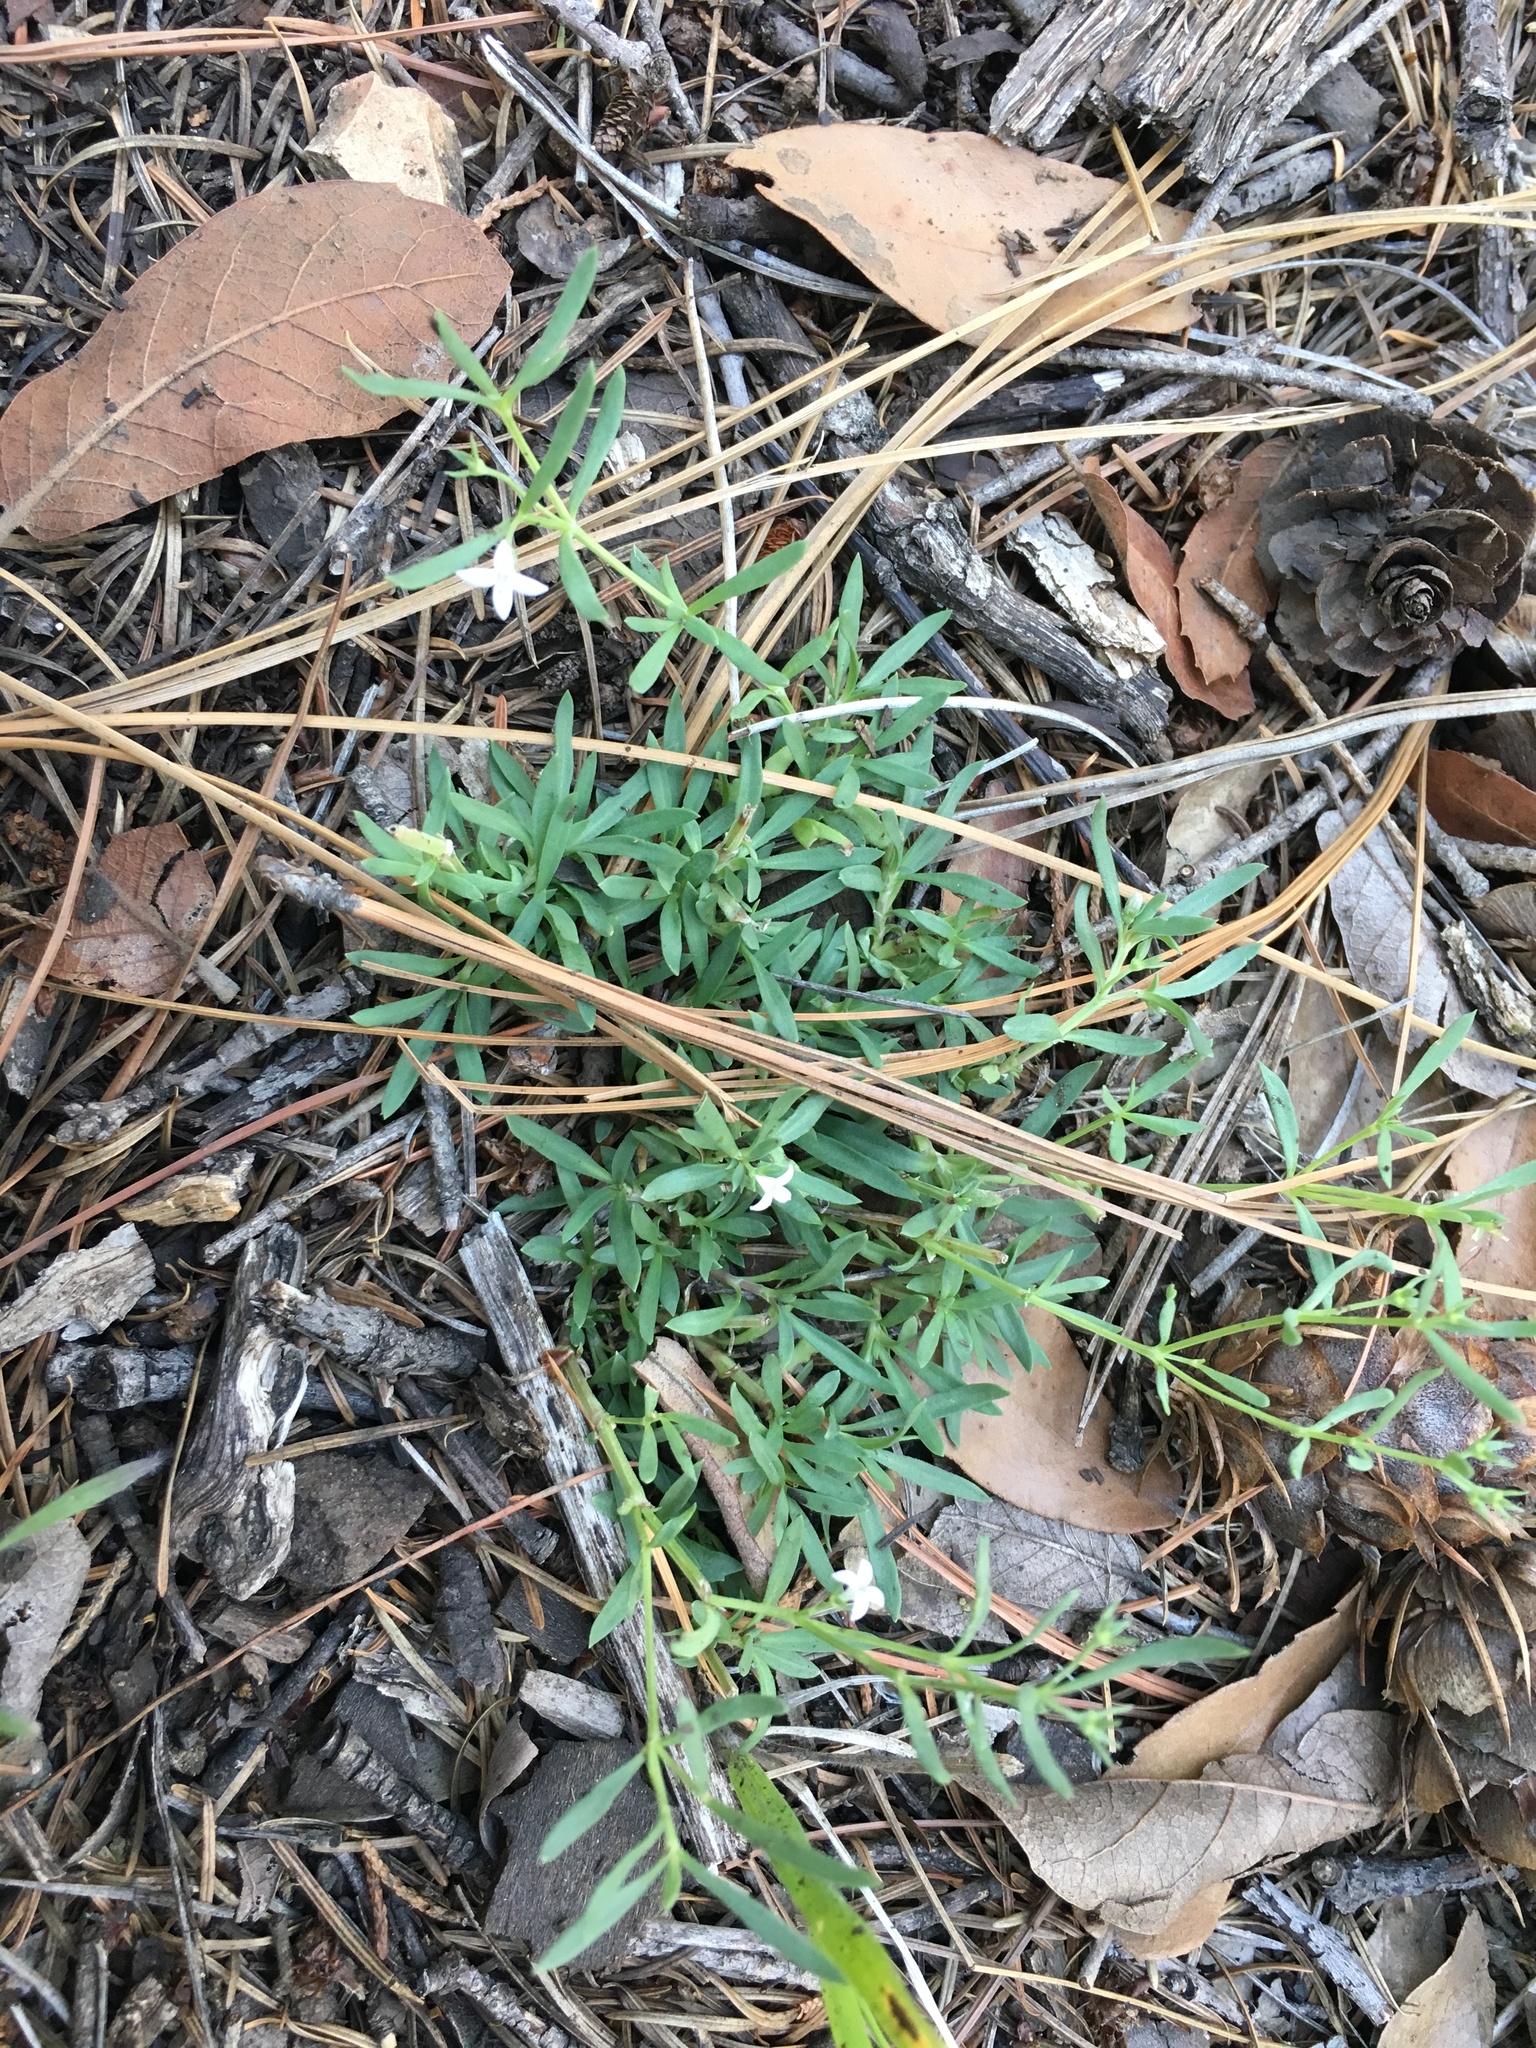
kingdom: Plantae
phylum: Tracheophyta
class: Magnoliopsida
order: Gentianales
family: Rubiaceae
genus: Houstonia
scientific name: Houstonia wrightii
